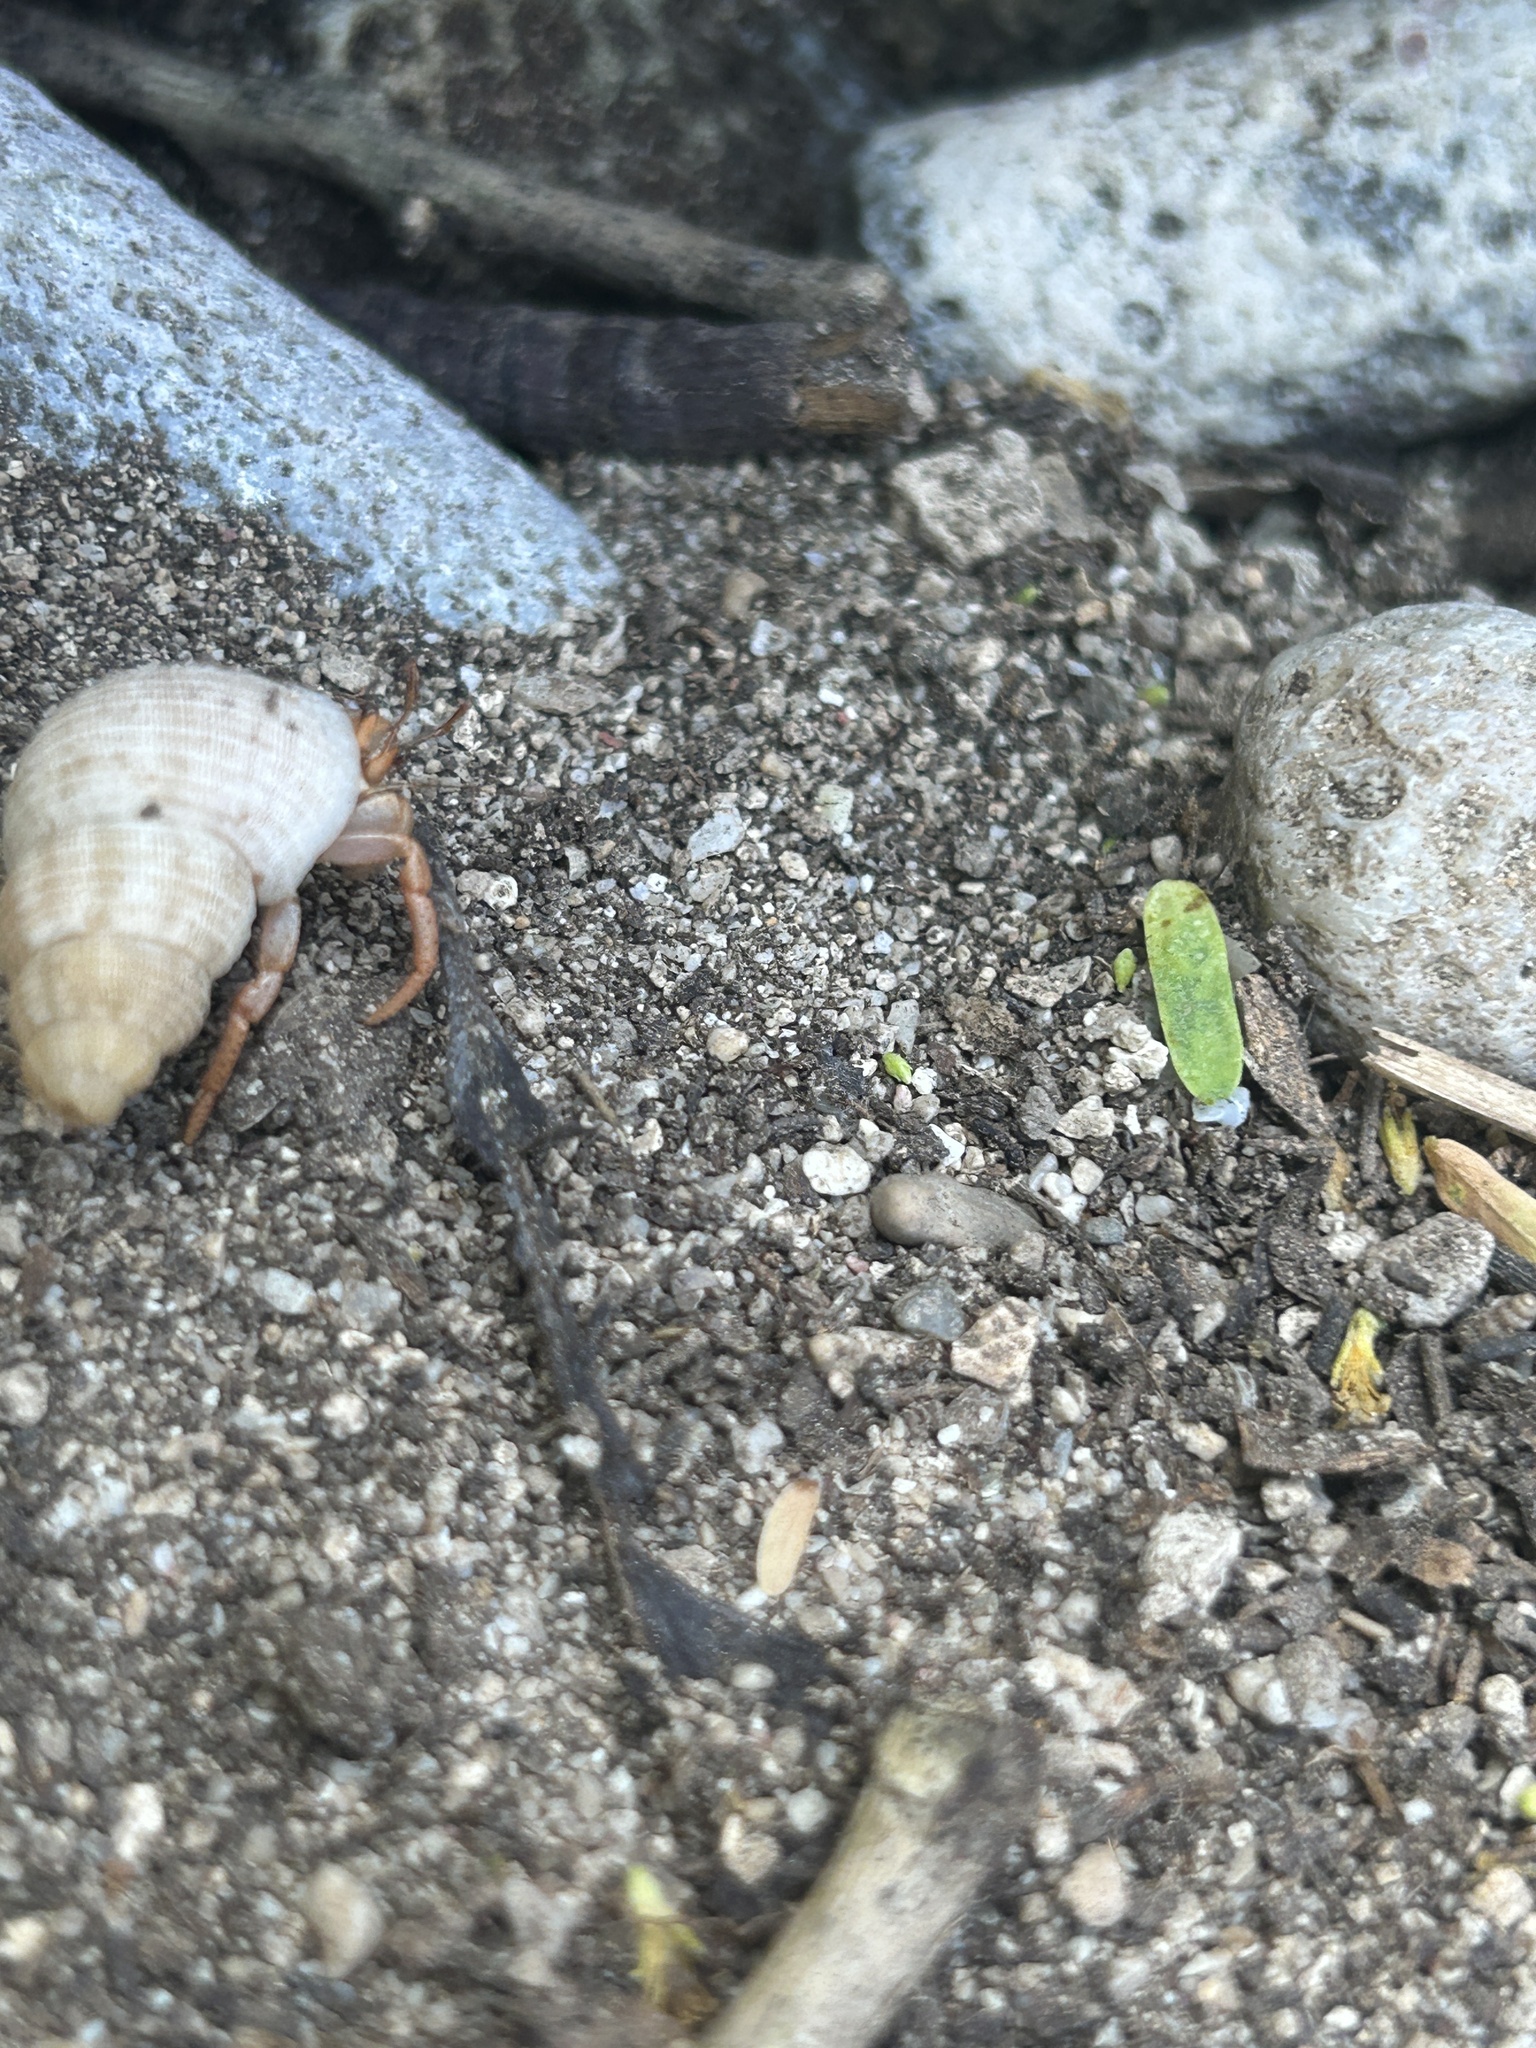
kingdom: Animalia
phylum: Arthropoda
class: Malacostraca
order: Decapoda
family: Coenobitidae
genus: Coenobita
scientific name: Coenobita clypeatus
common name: Caribbean hermit crab
